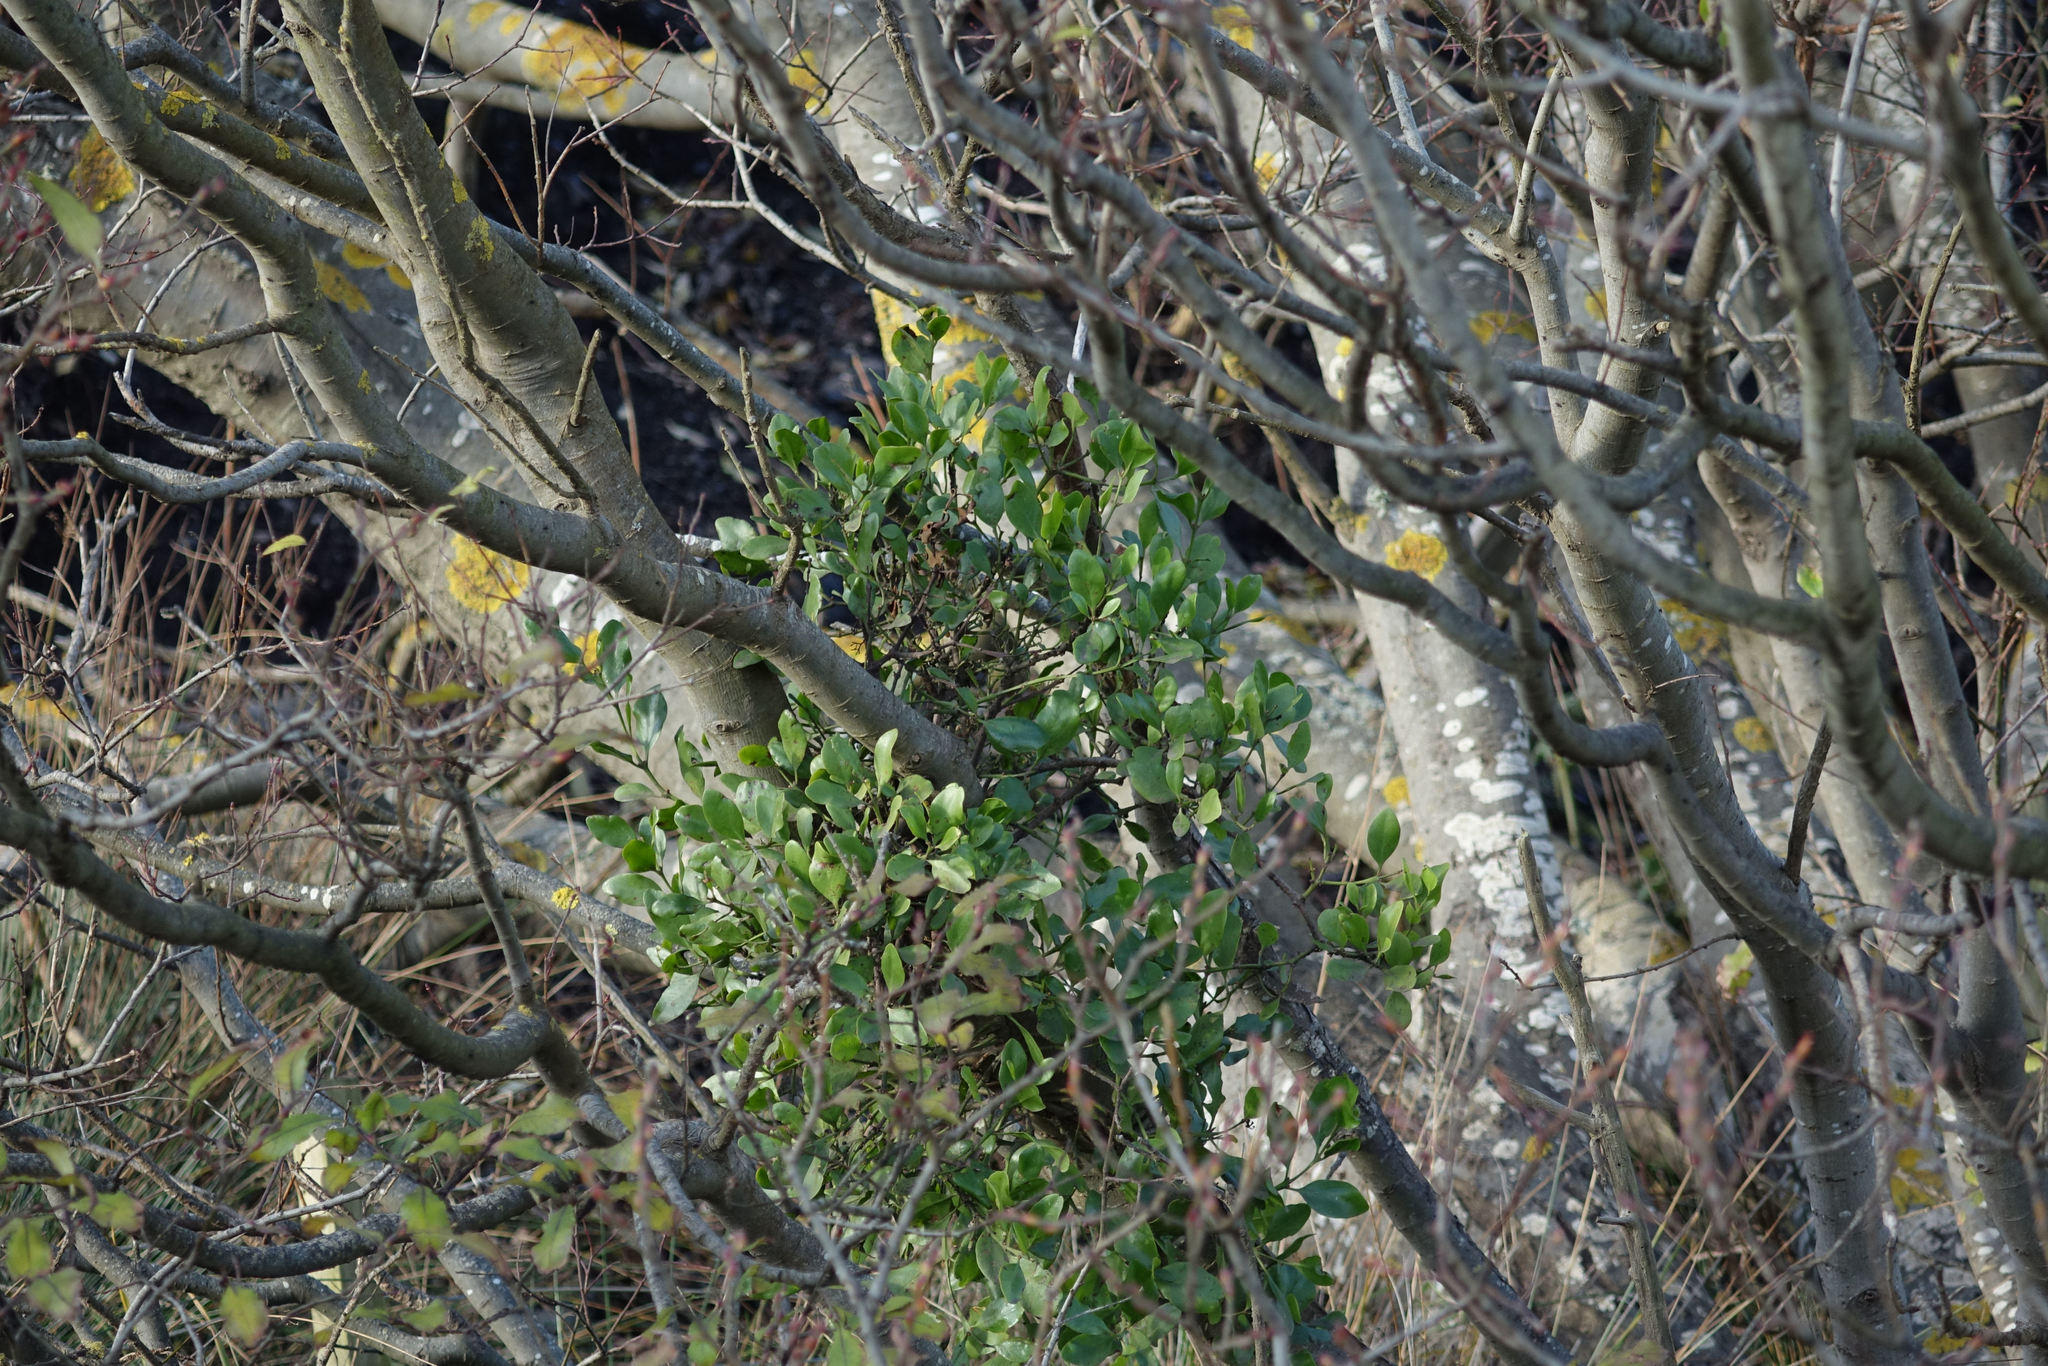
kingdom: Plantae
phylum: Tracheophyta
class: Magnoliopsida
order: Santalales
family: Loranthaceae
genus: Ileostylus
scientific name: Ileostylus micranthus
